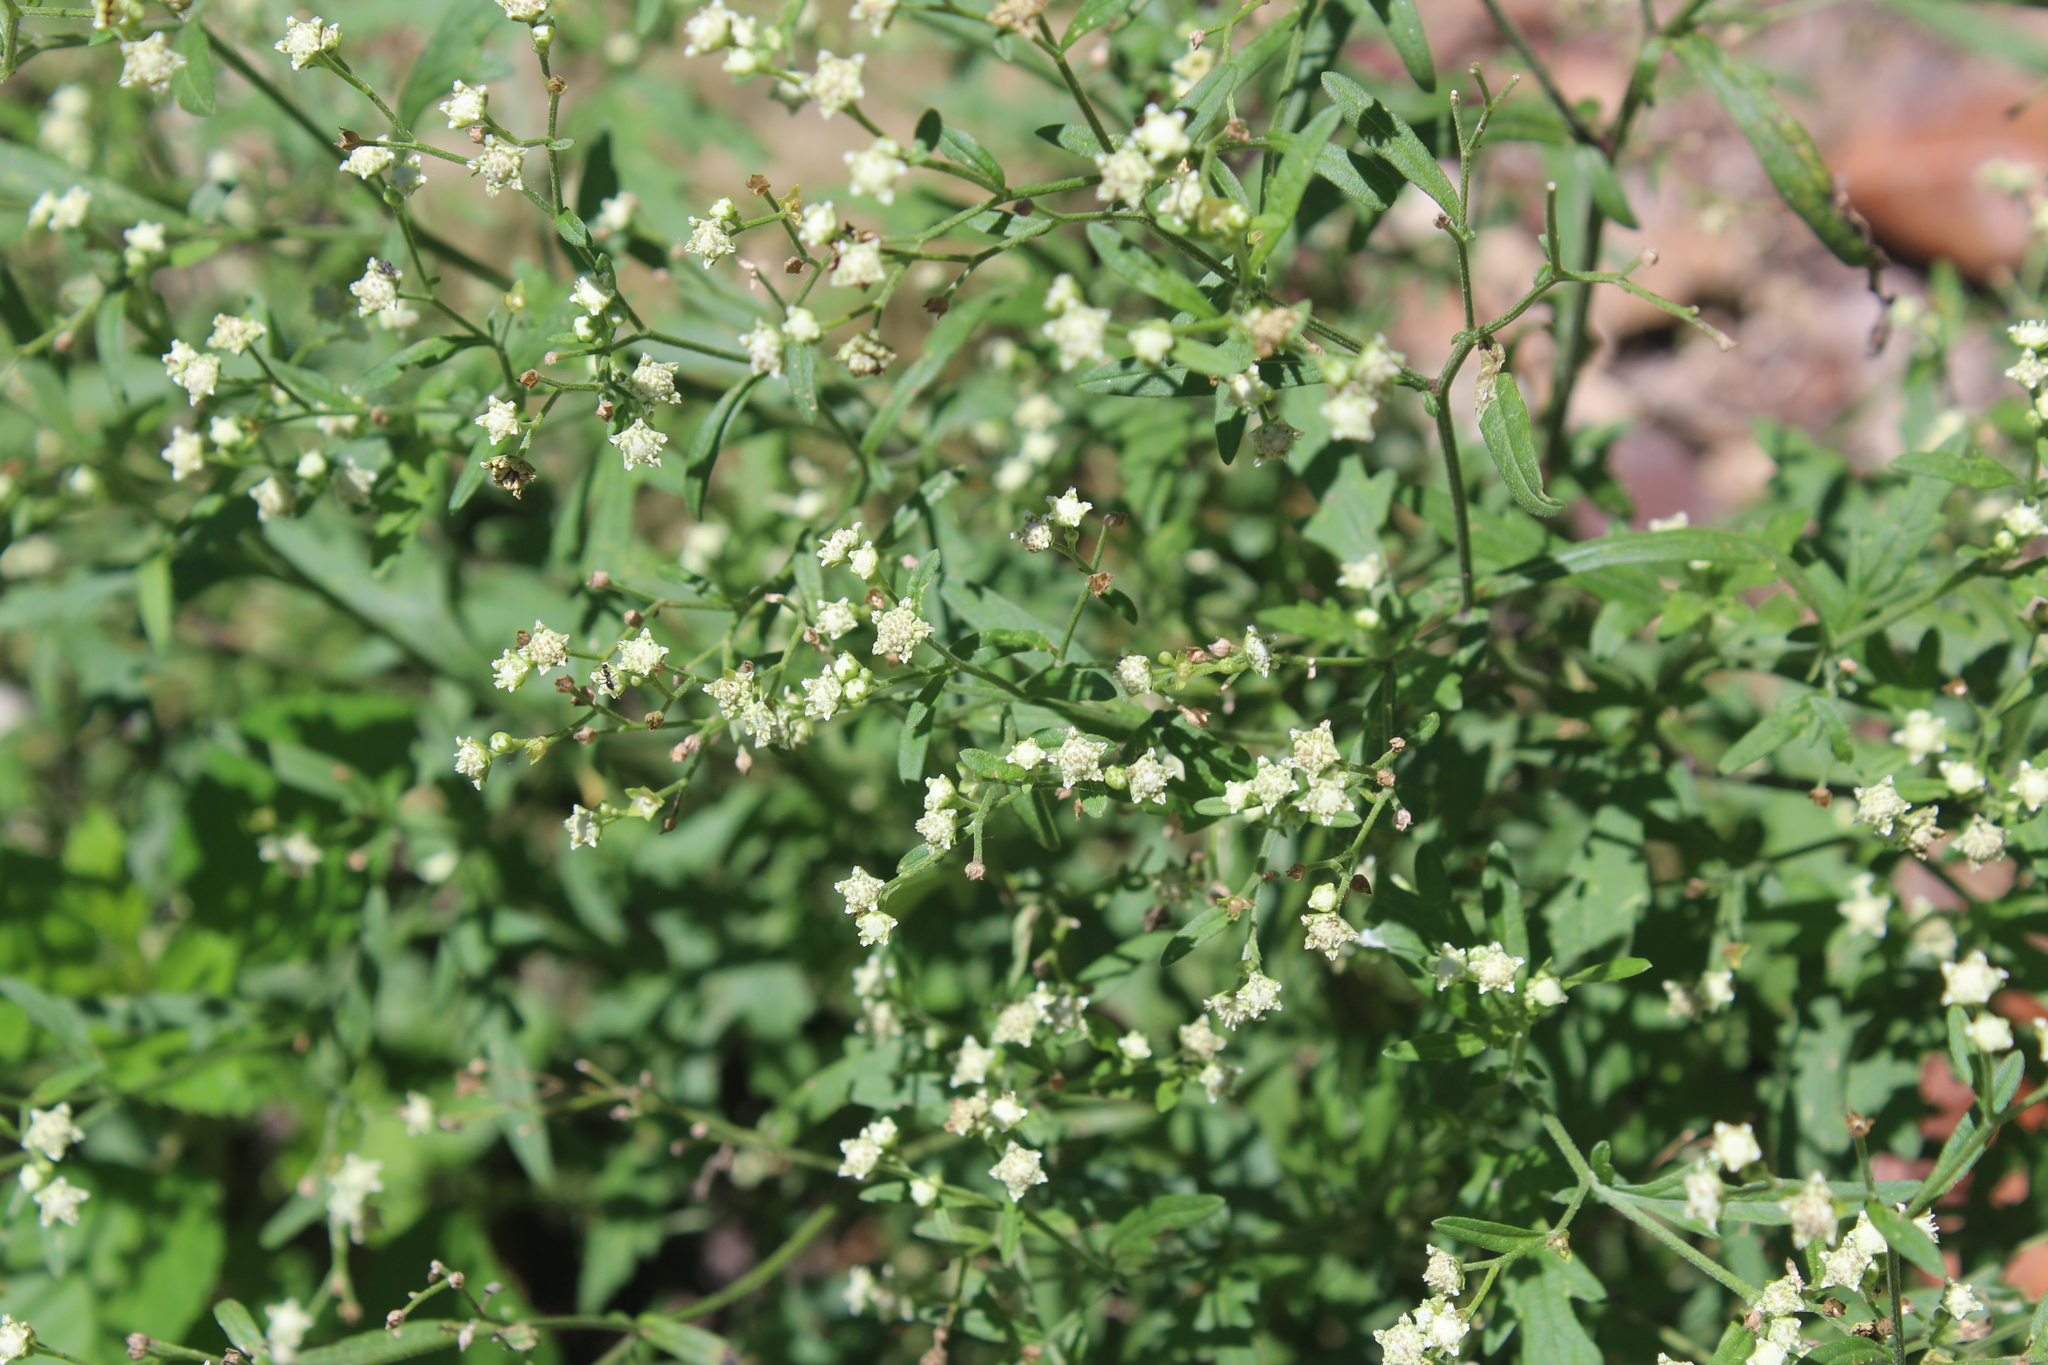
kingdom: Plantae
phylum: Tracheophyta
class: Magnoliopsida
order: Asterales
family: Asteraceae
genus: Parthenium
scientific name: Parthenium hysterophorus
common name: Santa maria feverfew
